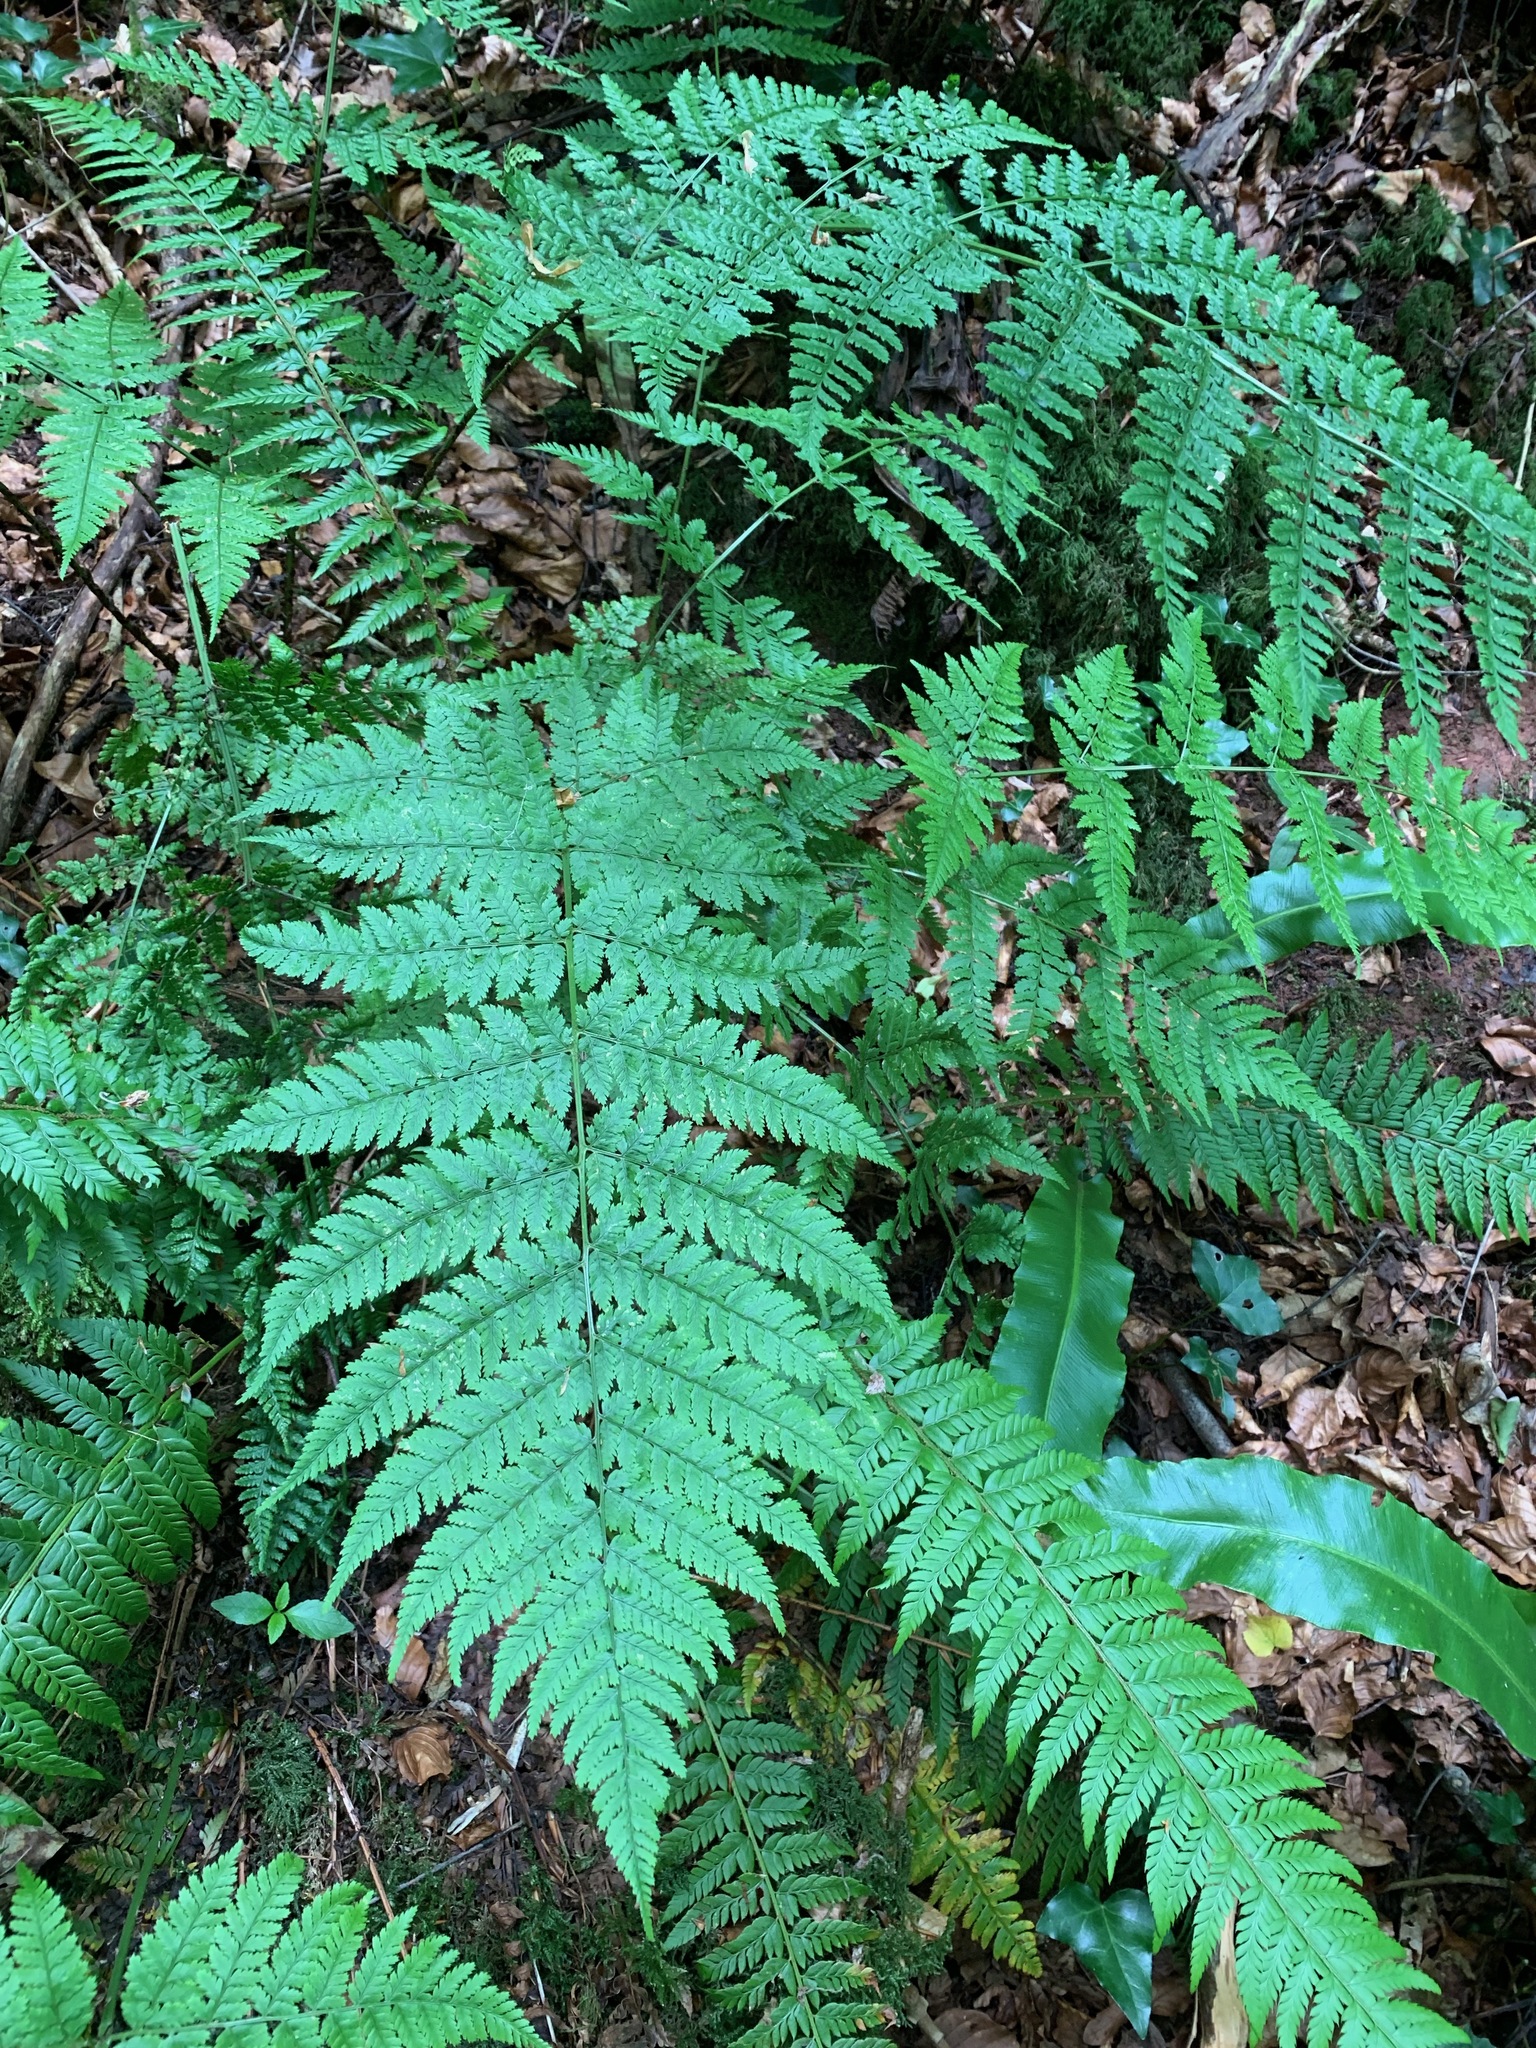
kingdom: Plantae
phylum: Tracheophyta
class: Polypodiopsida
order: Polypodiales
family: Dryopteridaceae
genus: Dryopteris
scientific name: Dryopteris dilatata
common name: Broad buckler-fern
